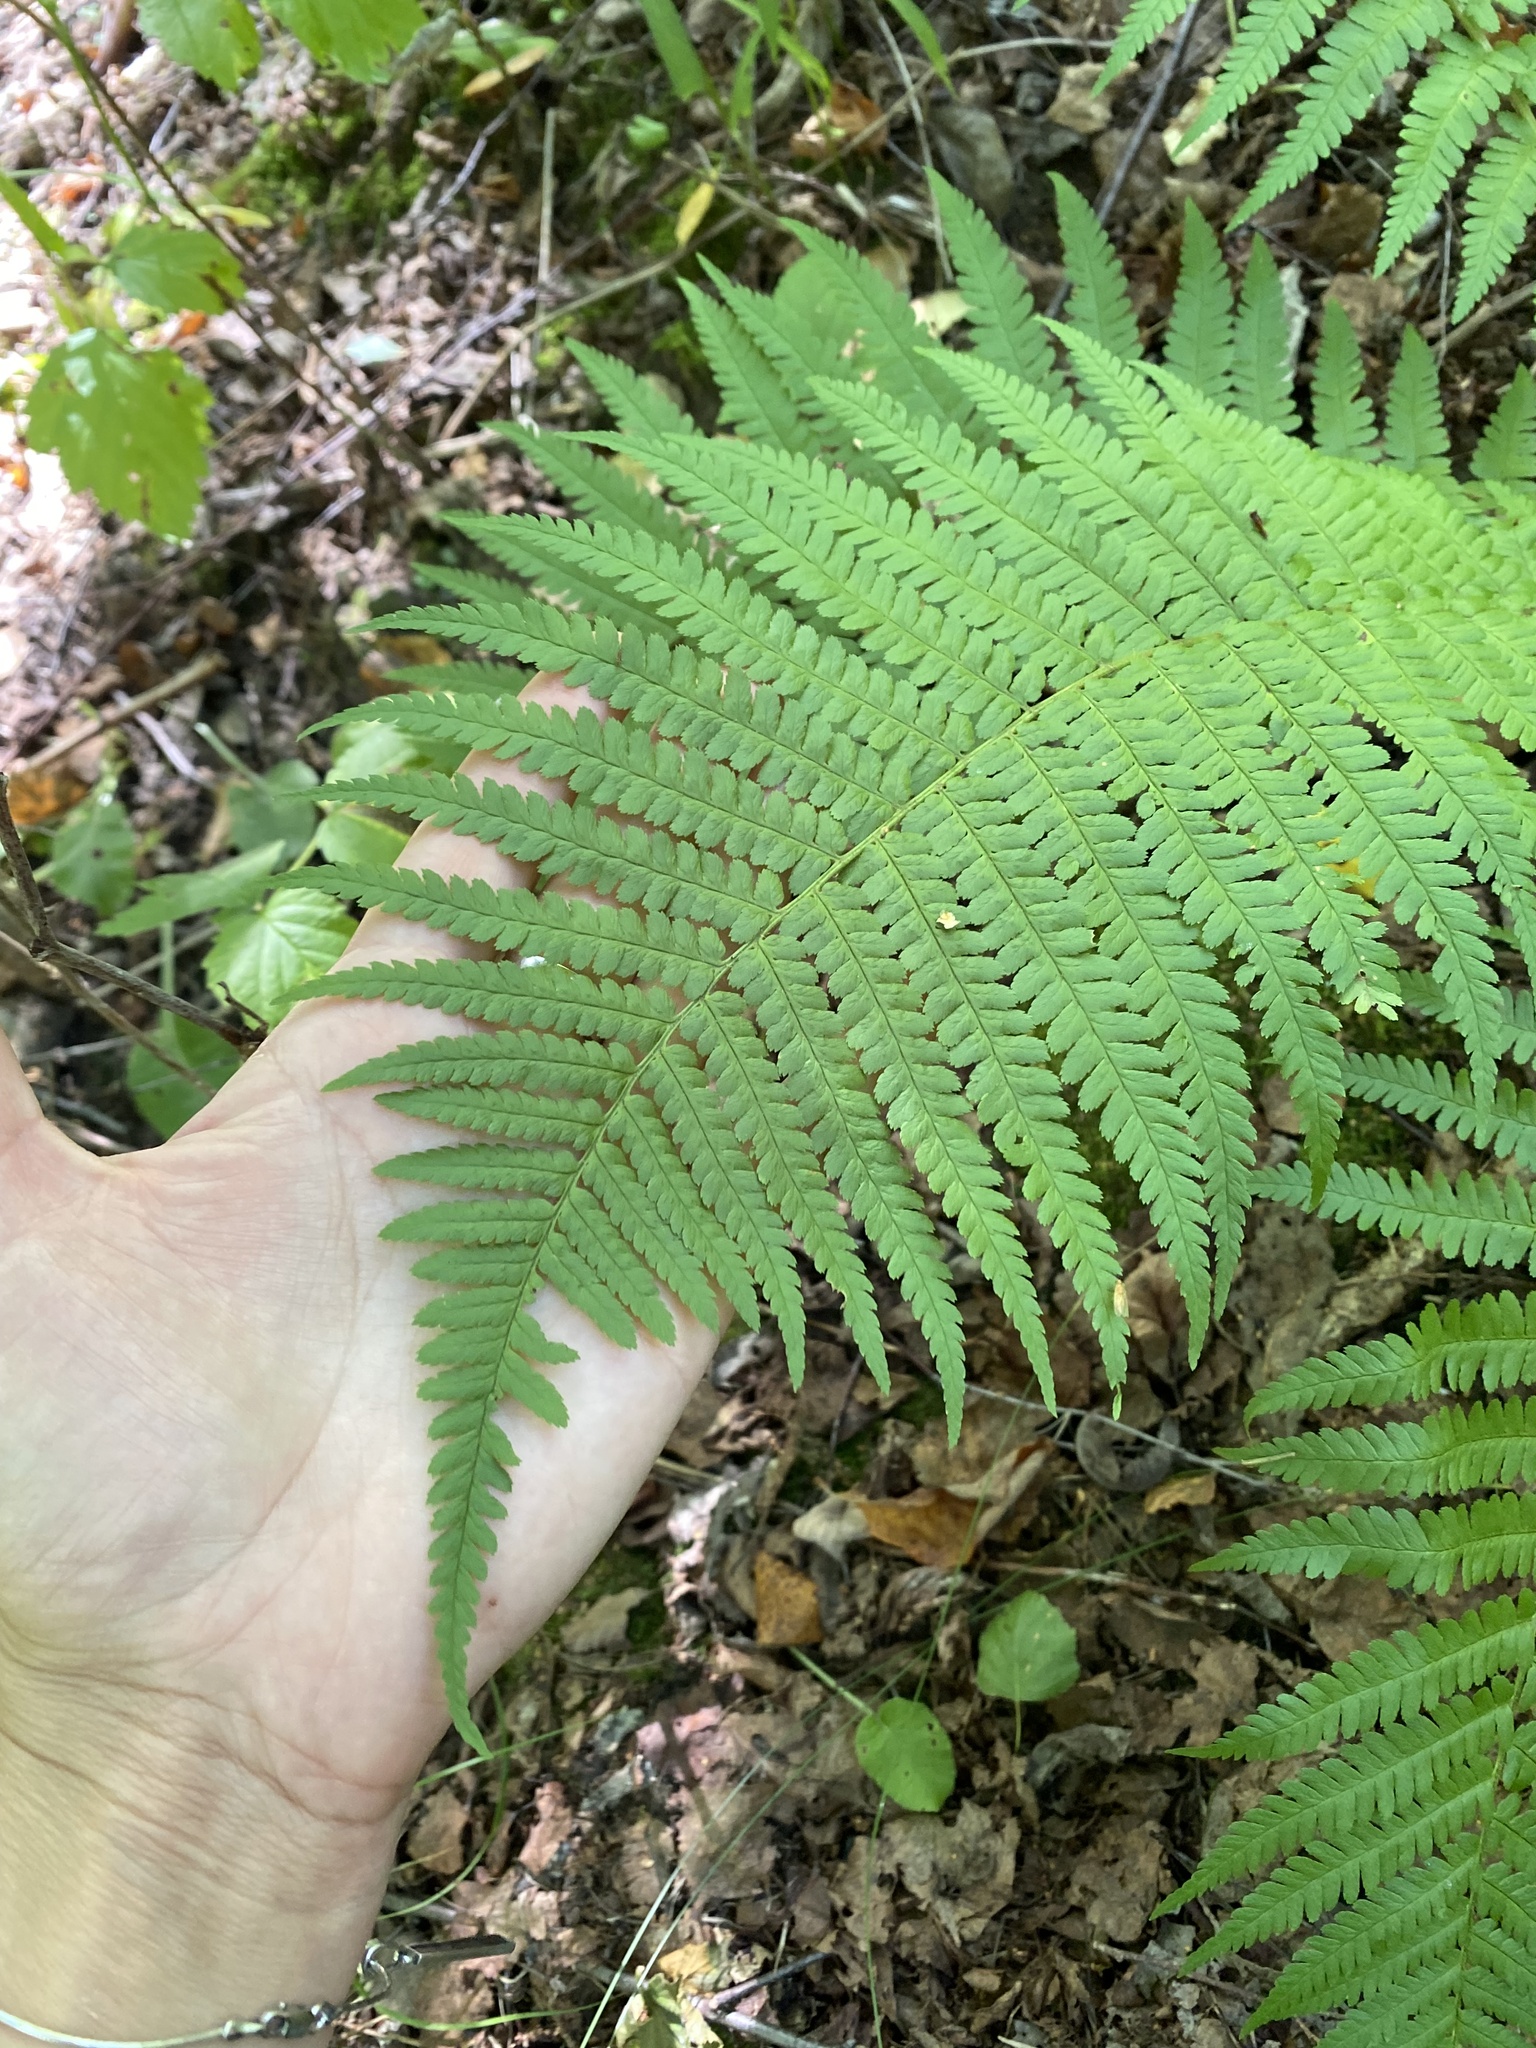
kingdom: Plantae
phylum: Tracheophyta
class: Polypodiopsida
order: Polypodiales
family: Dryopteridaceae
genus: Dryopteris
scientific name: Dryopteris filix-mas
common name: Male fern
